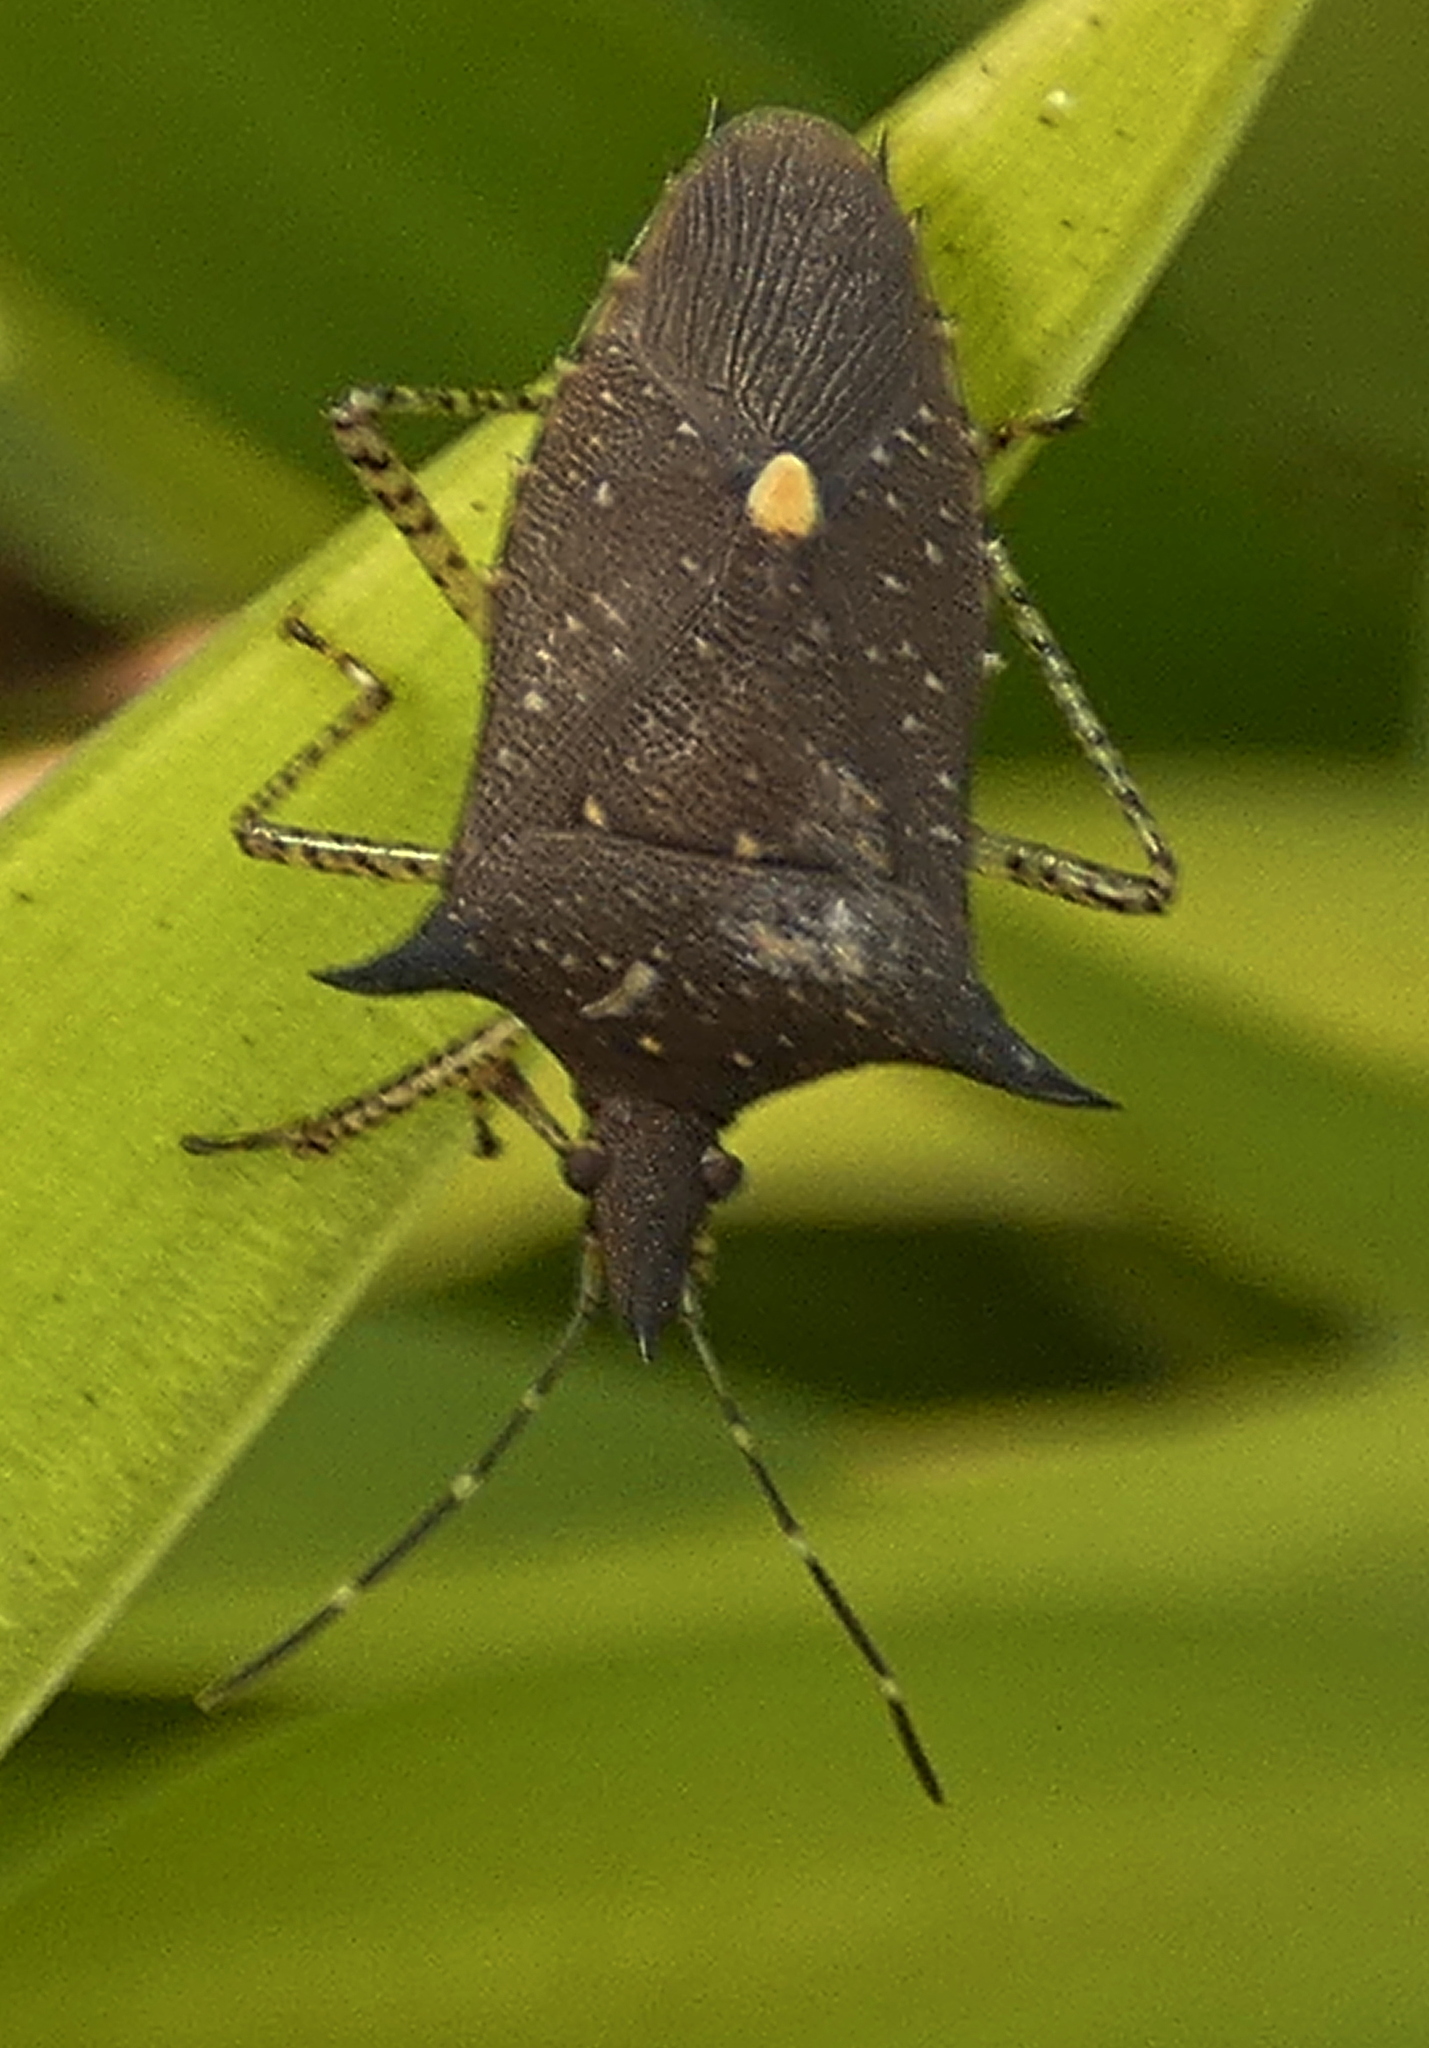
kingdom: Animalia
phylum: Arthropoda
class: Insecta
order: Hemiptera
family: Pentatomidae
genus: Proxys
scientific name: Proxys albopunctulatus
